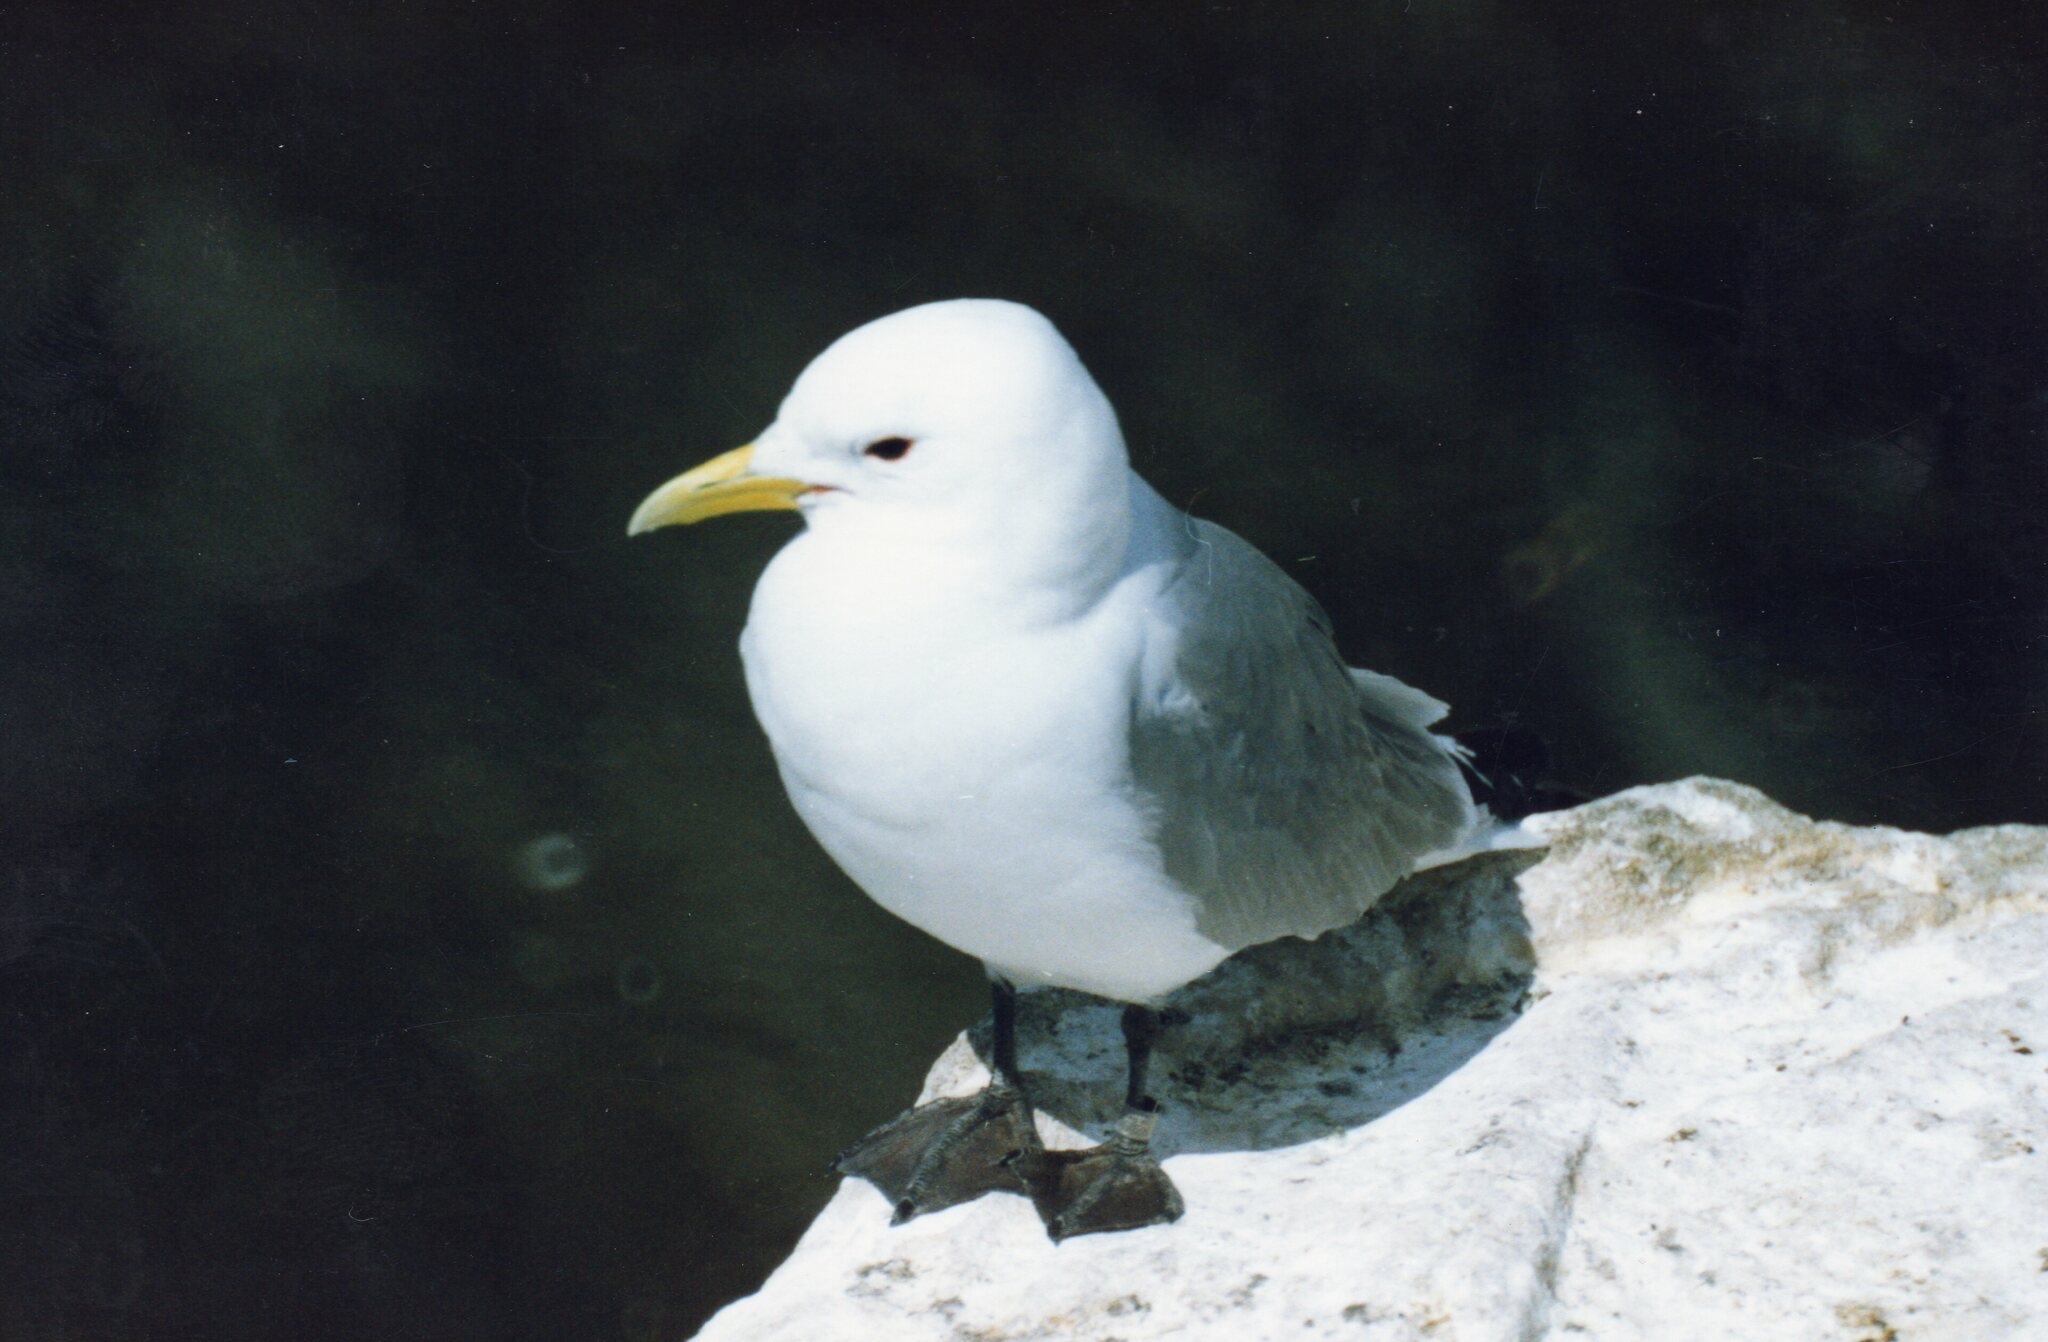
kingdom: Animalia
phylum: Chordata
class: Aves
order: Charadriiformes
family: Laridae
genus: Rissa
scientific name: Rissa tridactyla
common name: Black-legged kittiwake
